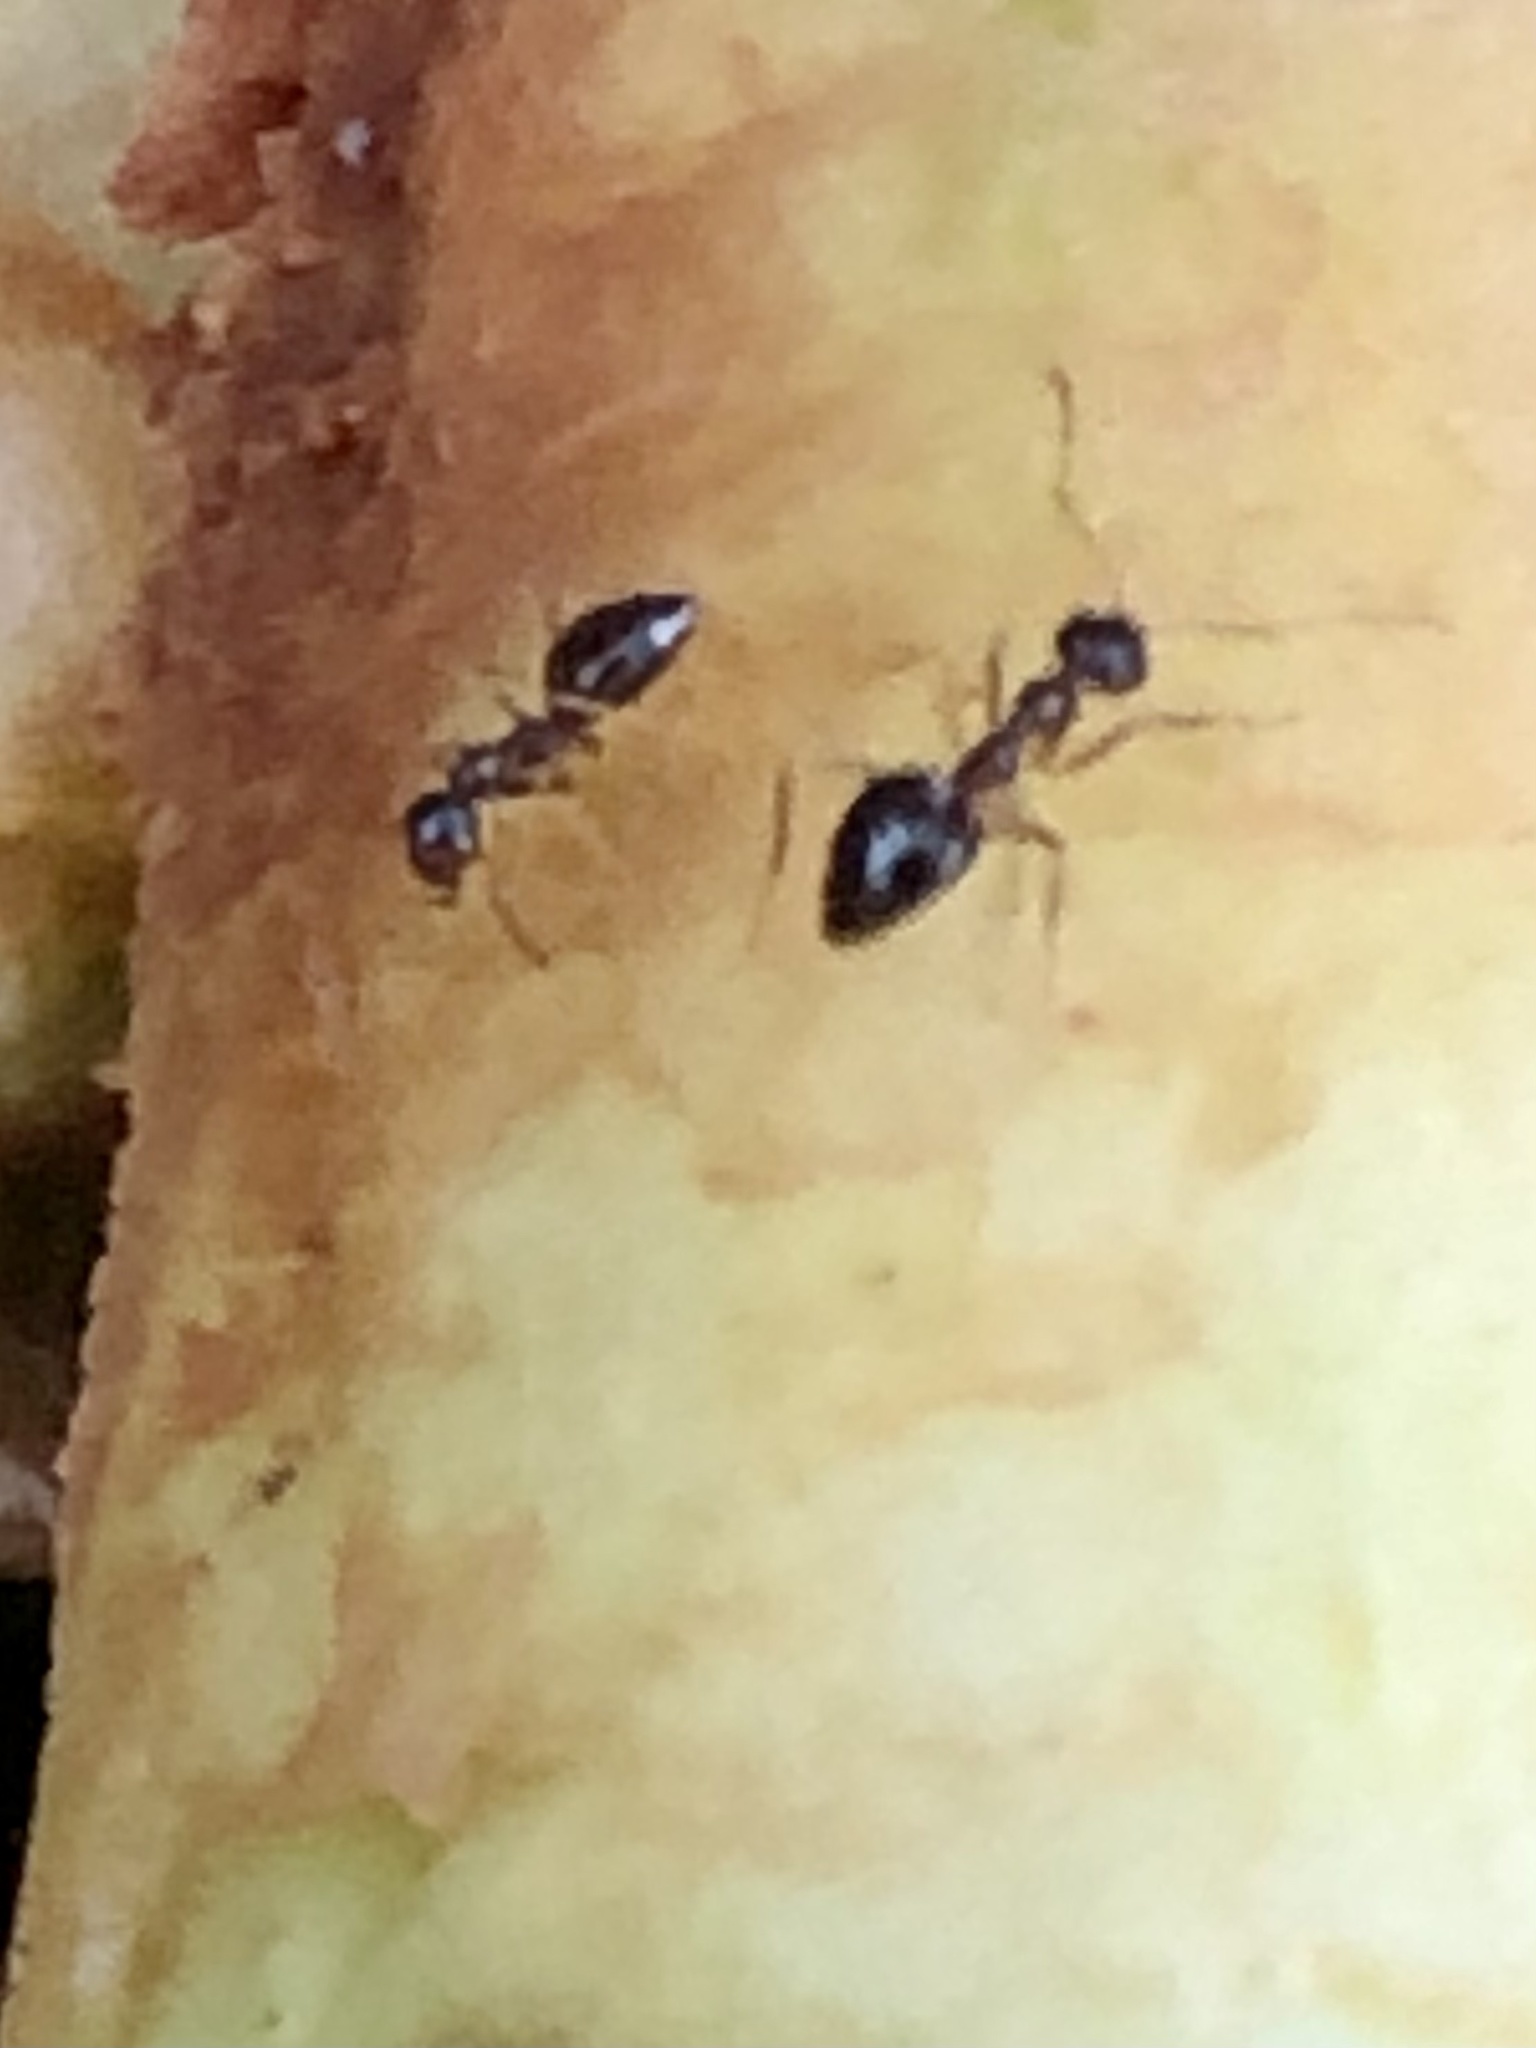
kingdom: Animalia
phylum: Arthropoda
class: Insecta
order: Hymenoptera
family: Formicidae
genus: Prenolepis
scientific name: Prenolepis imparis
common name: Small honey ant
